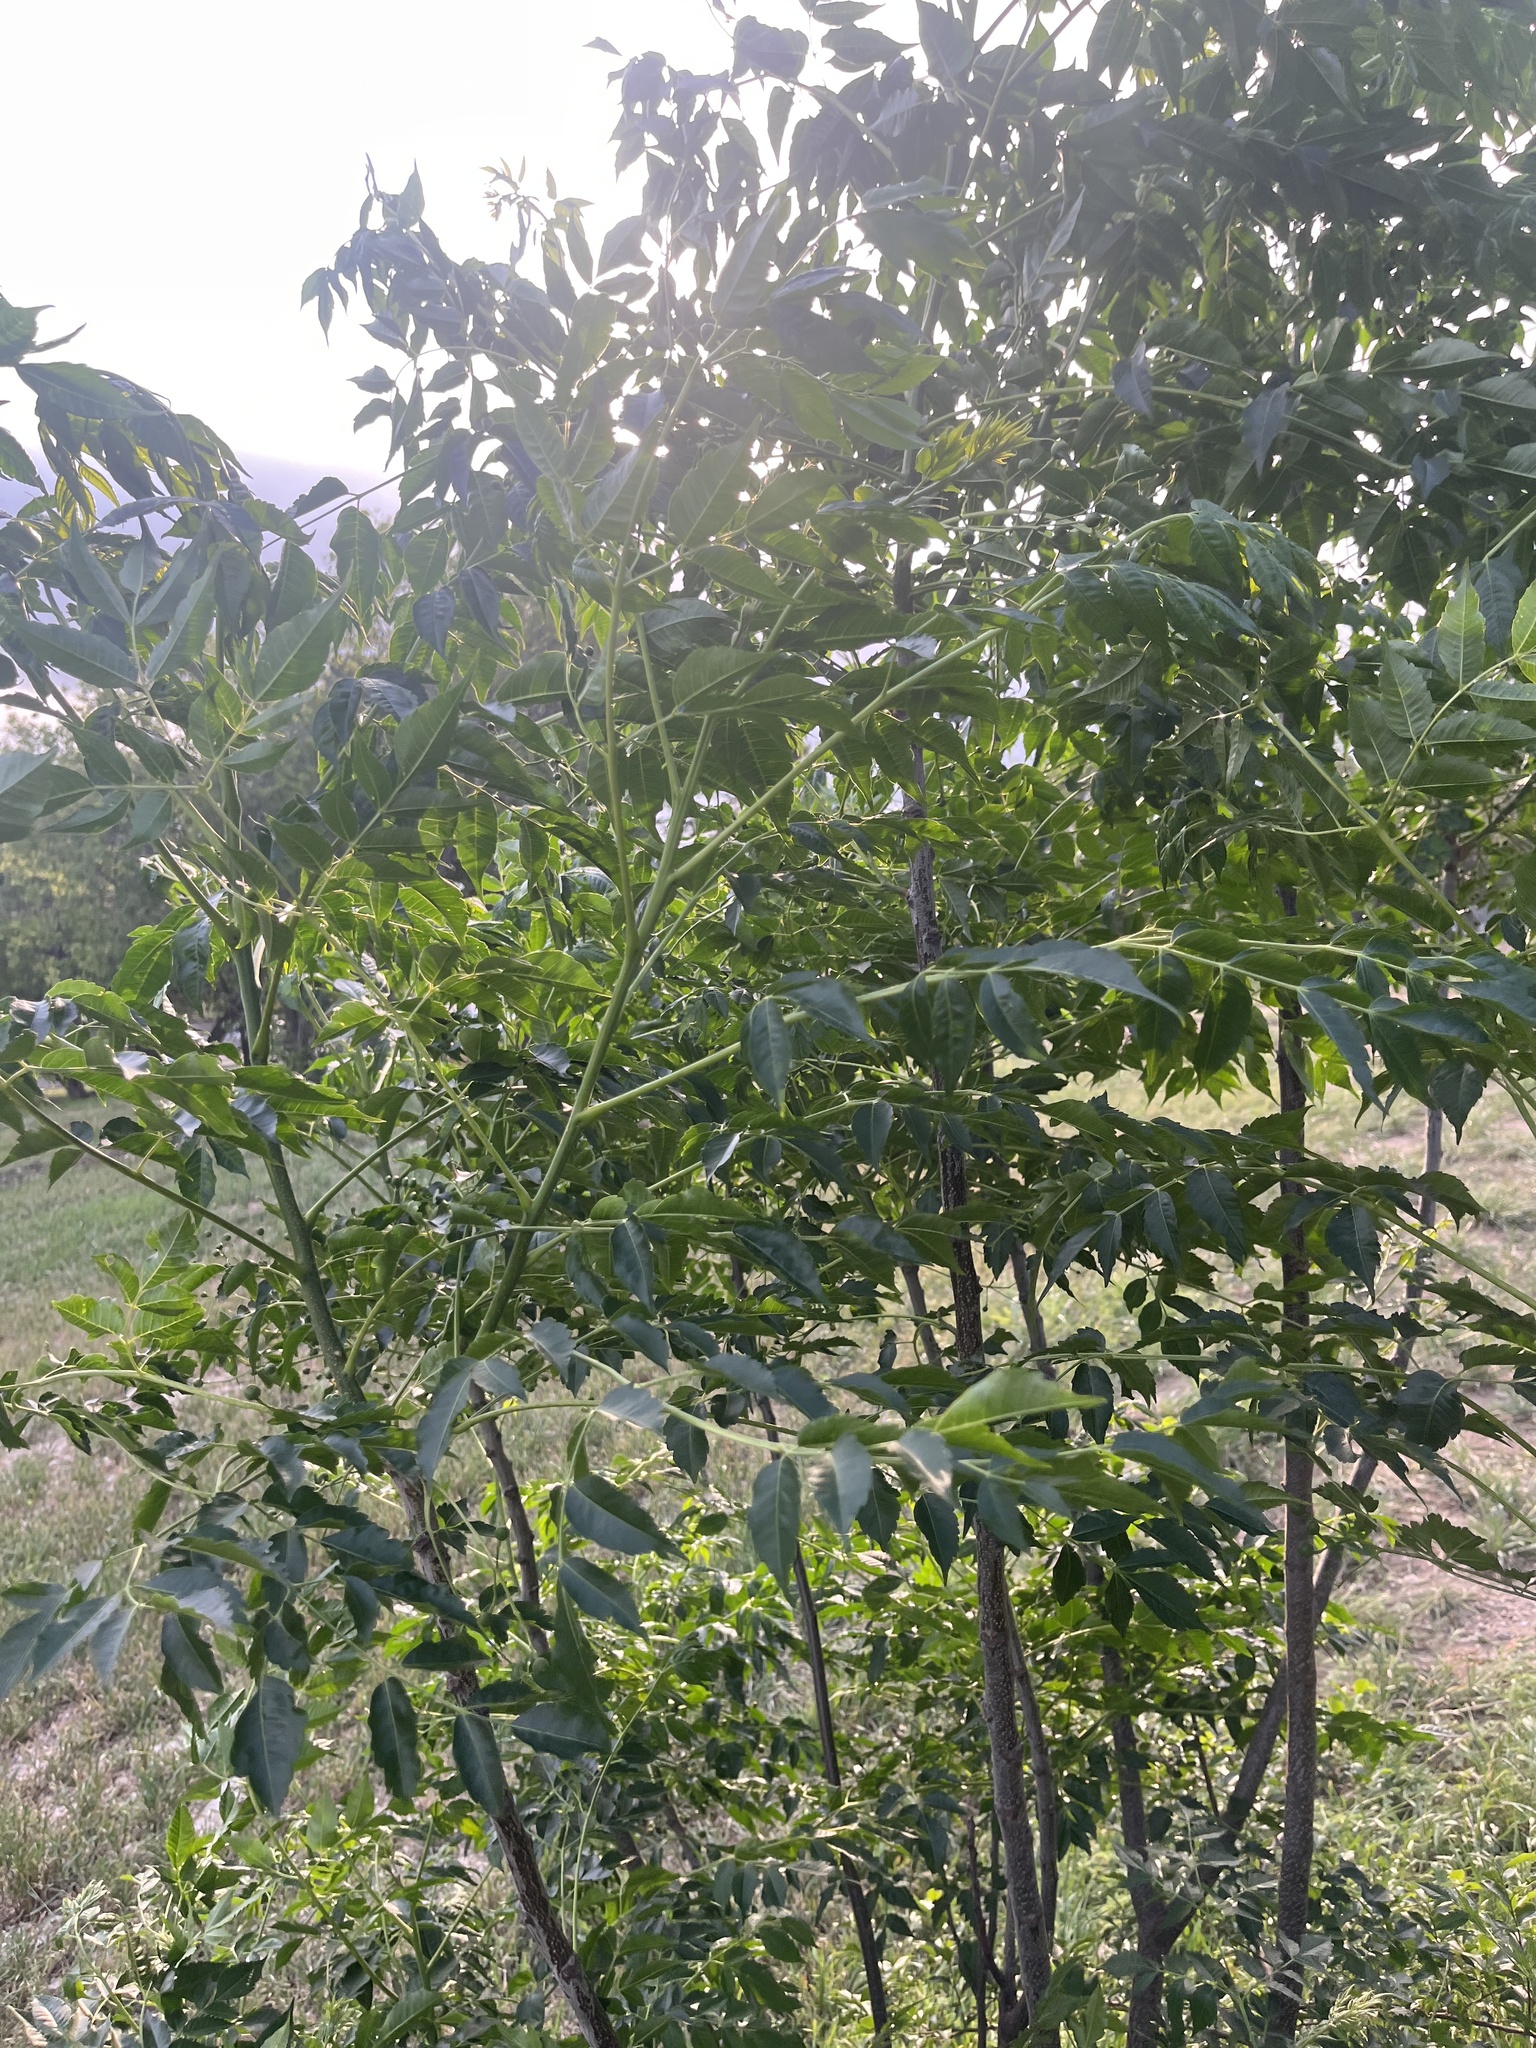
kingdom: Plantae
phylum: Tracheophyta
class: Magnoliopsida
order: Sapindales
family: Meliaceae
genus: Melia
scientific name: Melia azedarach
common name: Chinaberrytree
